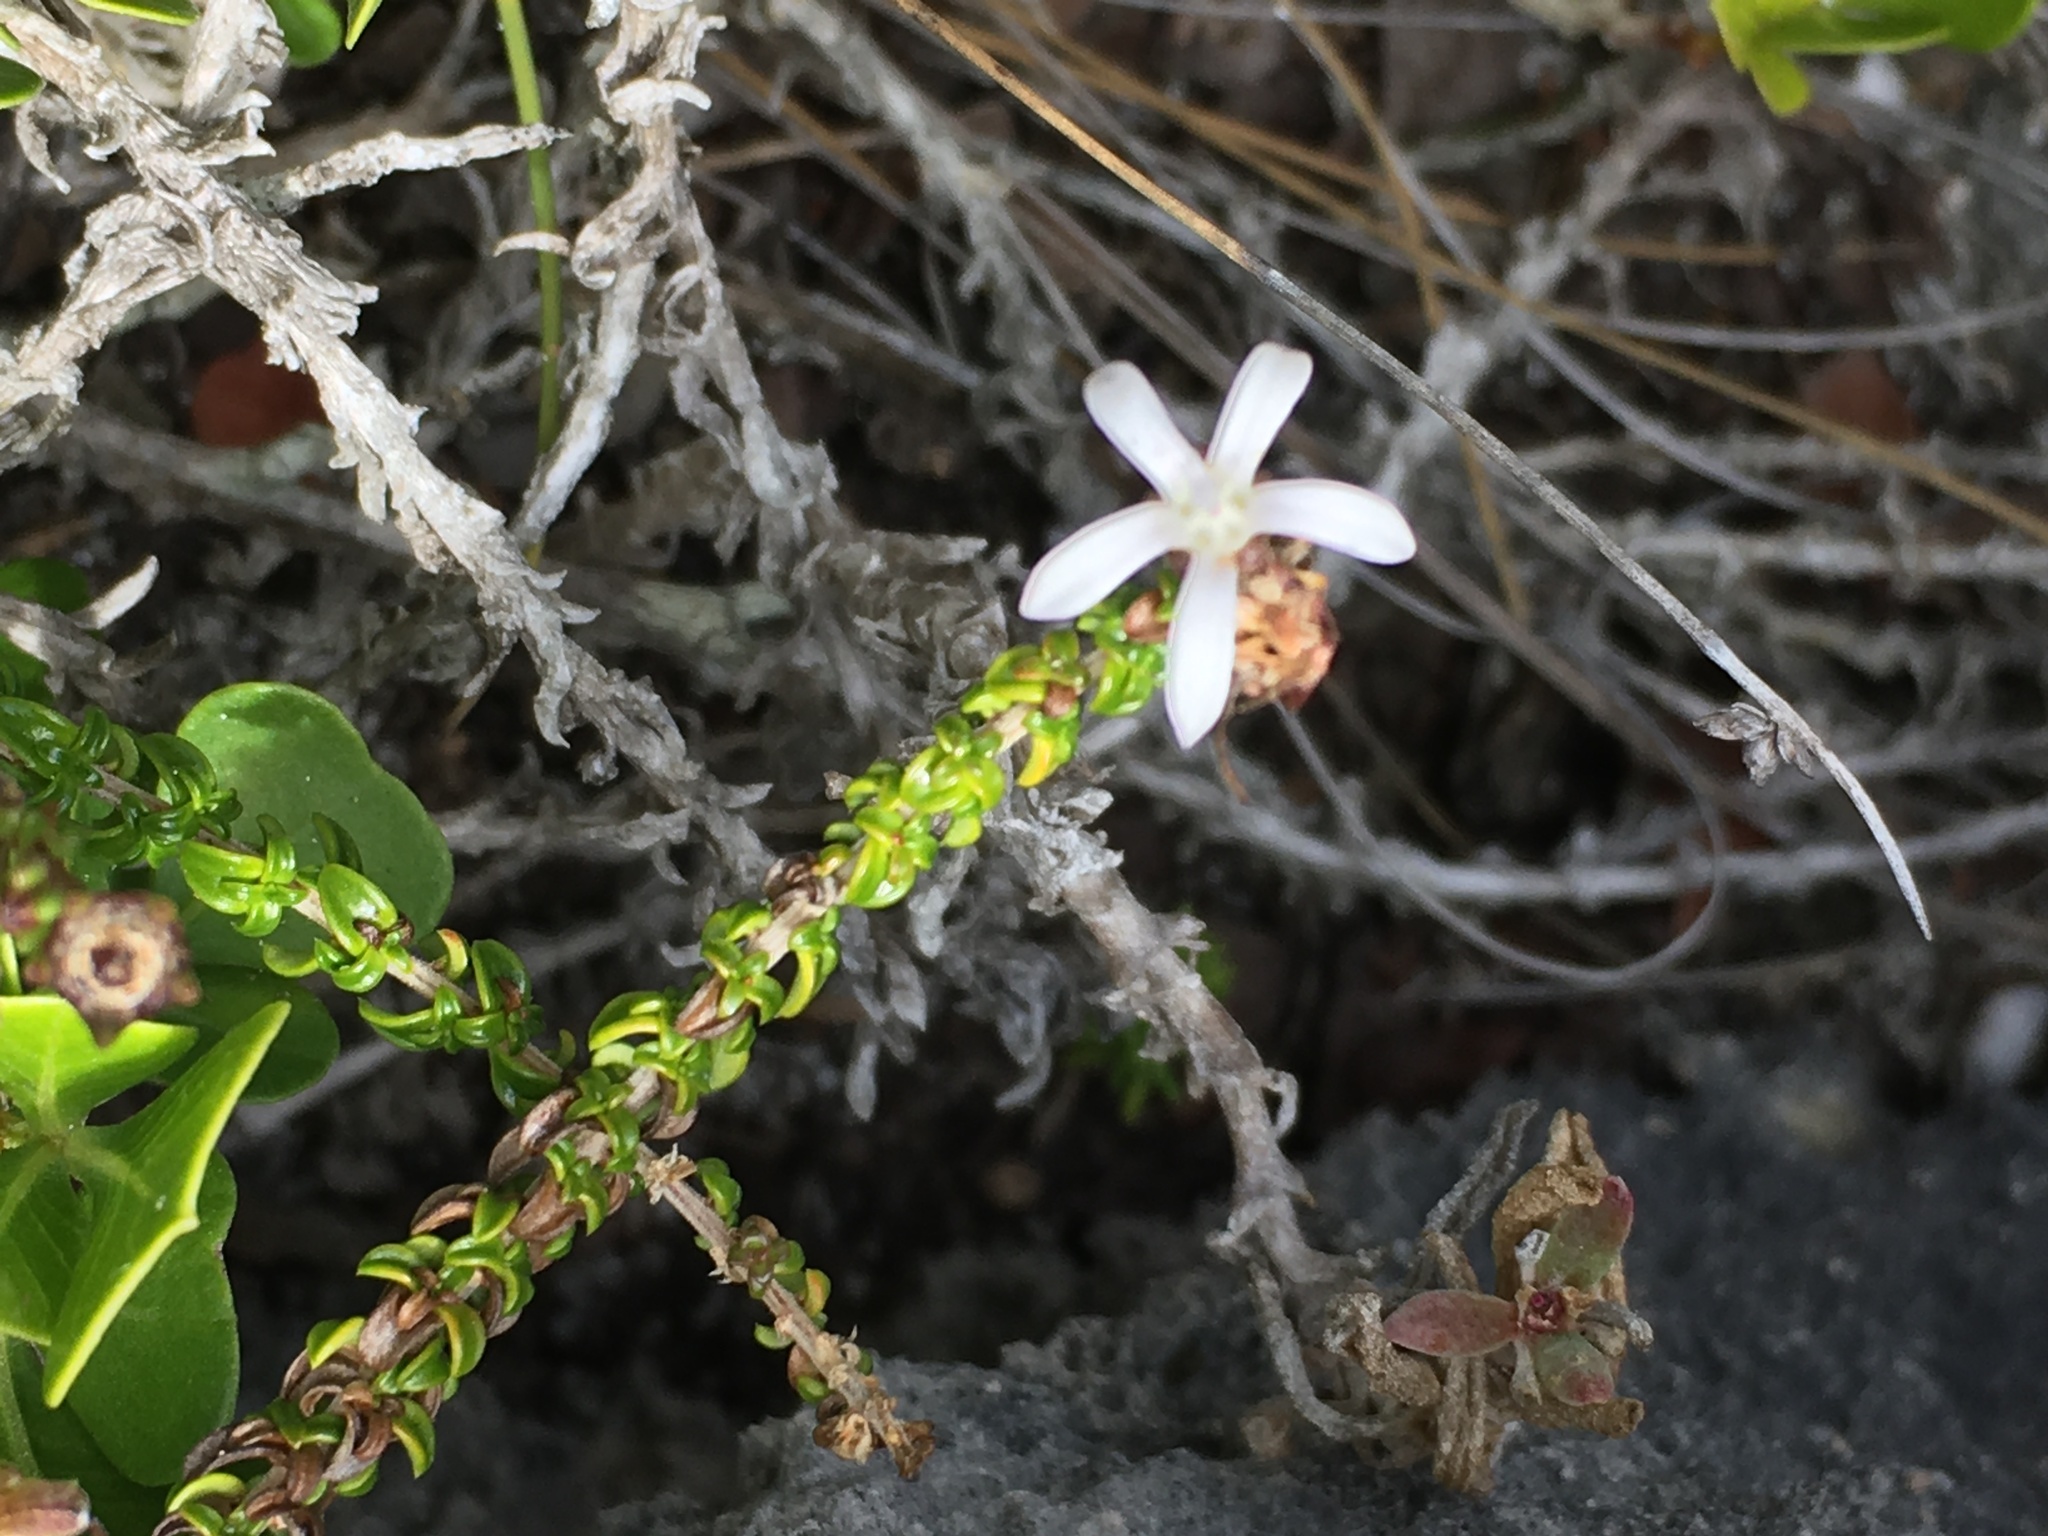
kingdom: Plantae
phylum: Tracheophyta
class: Magnoliopsida
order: Asterales
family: Campanulaceae
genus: Wahlenbergia
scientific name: Wahlenbergia tenella
